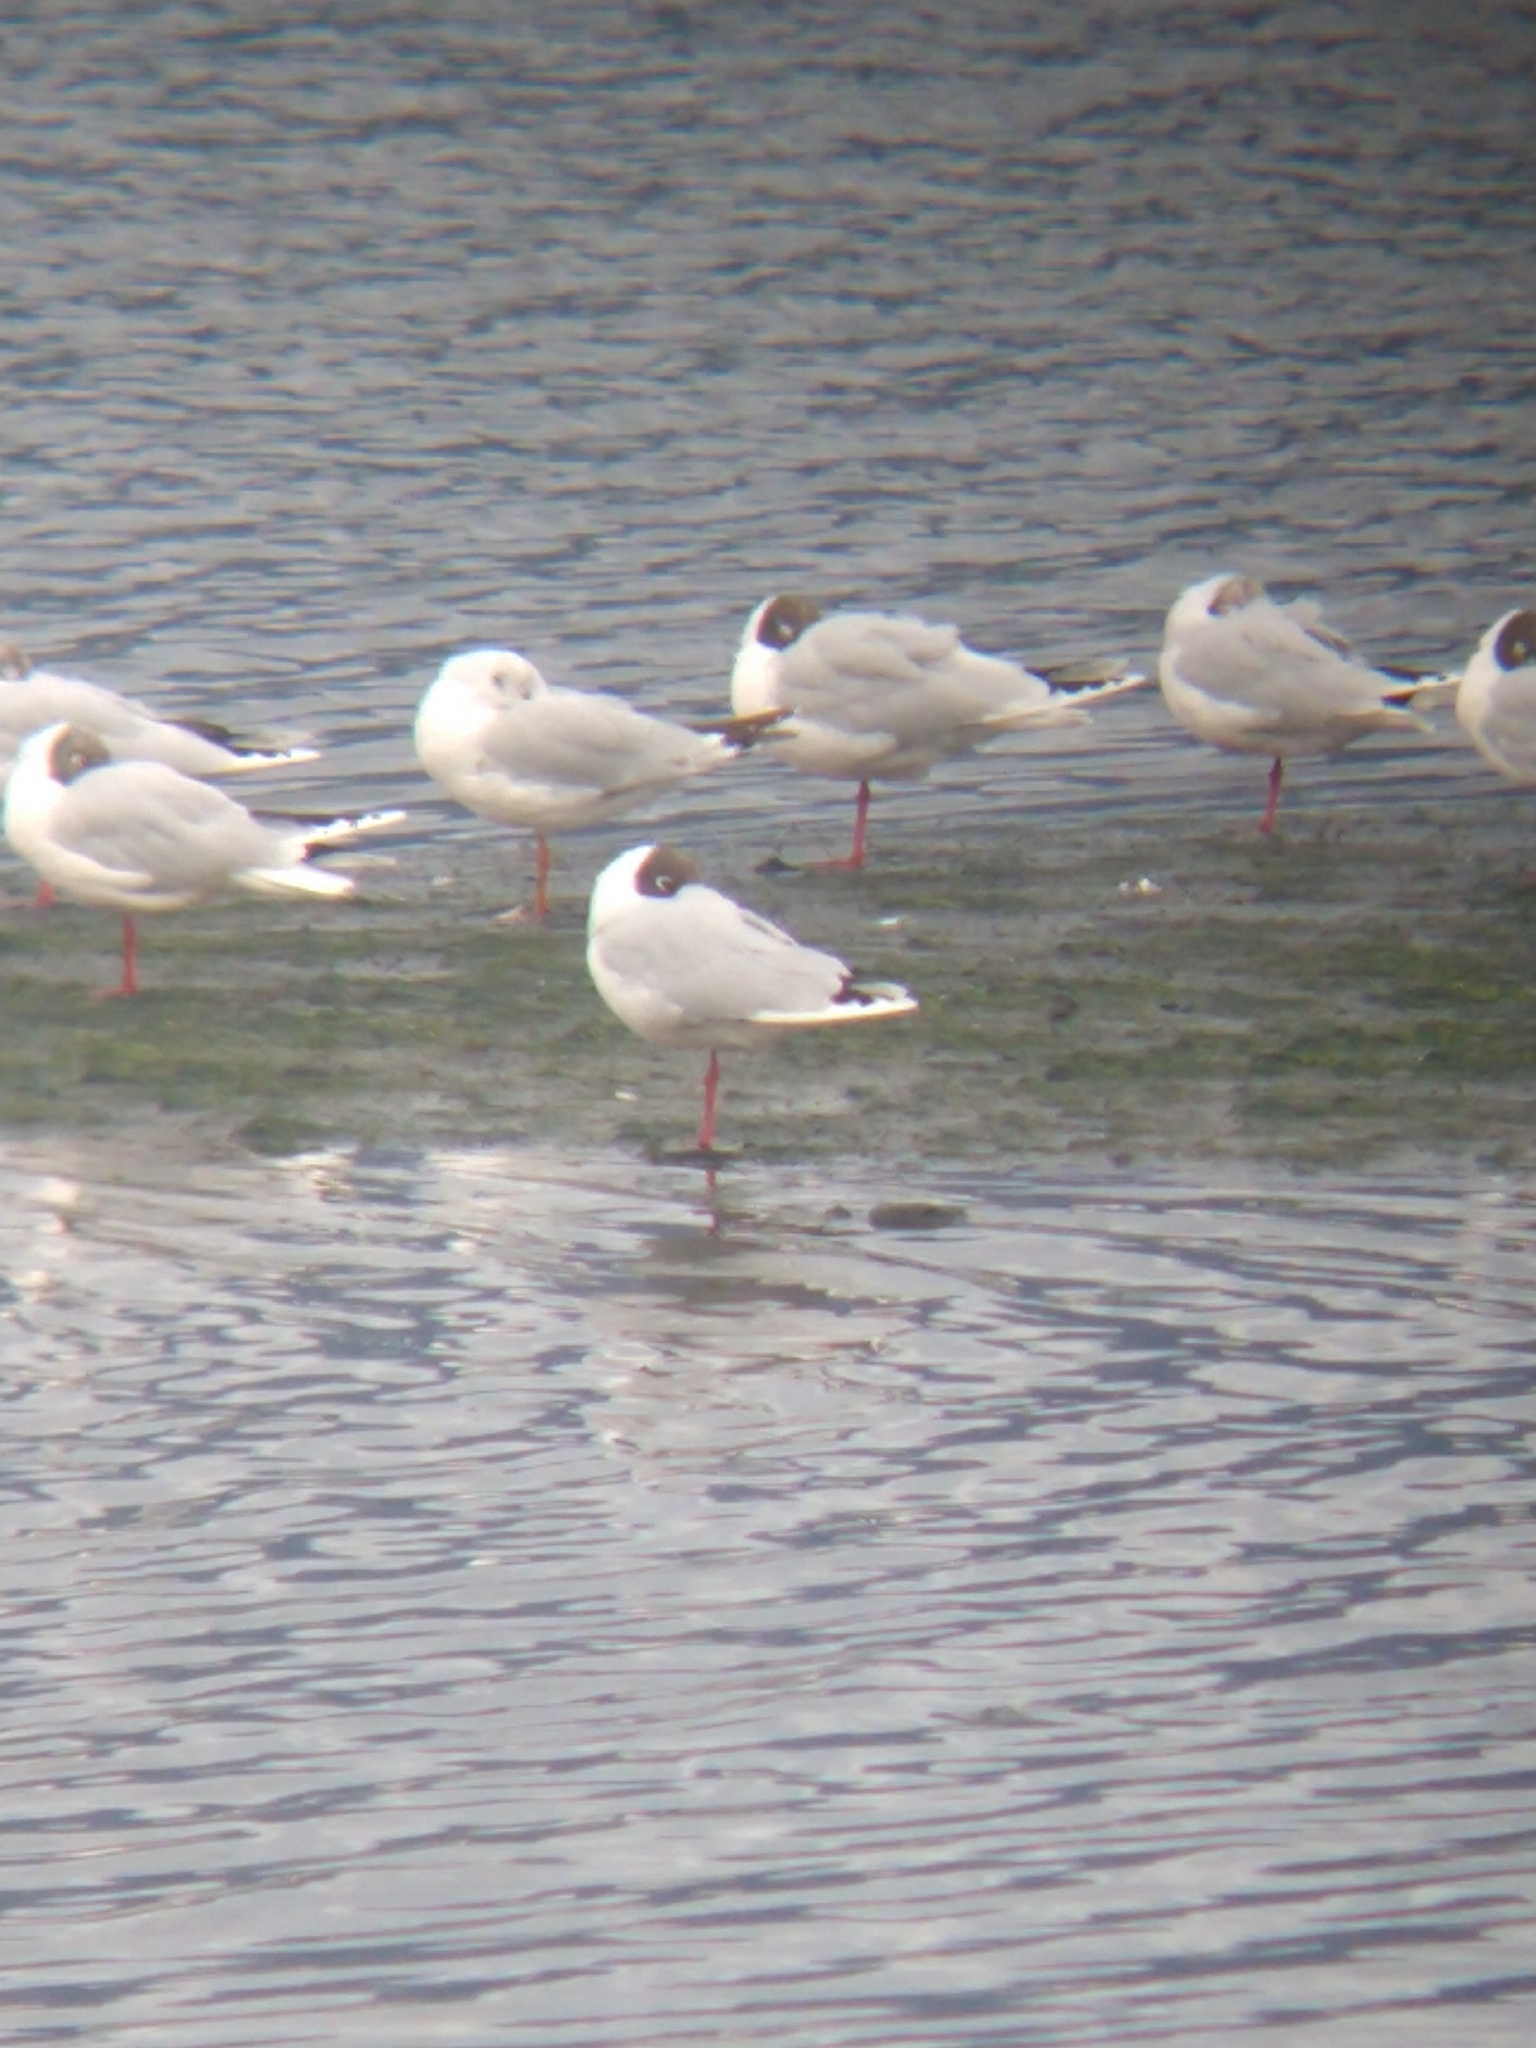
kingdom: Animalia
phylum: Chordata
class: Aves
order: Charadriiformes
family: Laridae
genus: Chroicocephalus
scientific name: Chroicocephalus maculipennis
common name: Brown-hooded gull
